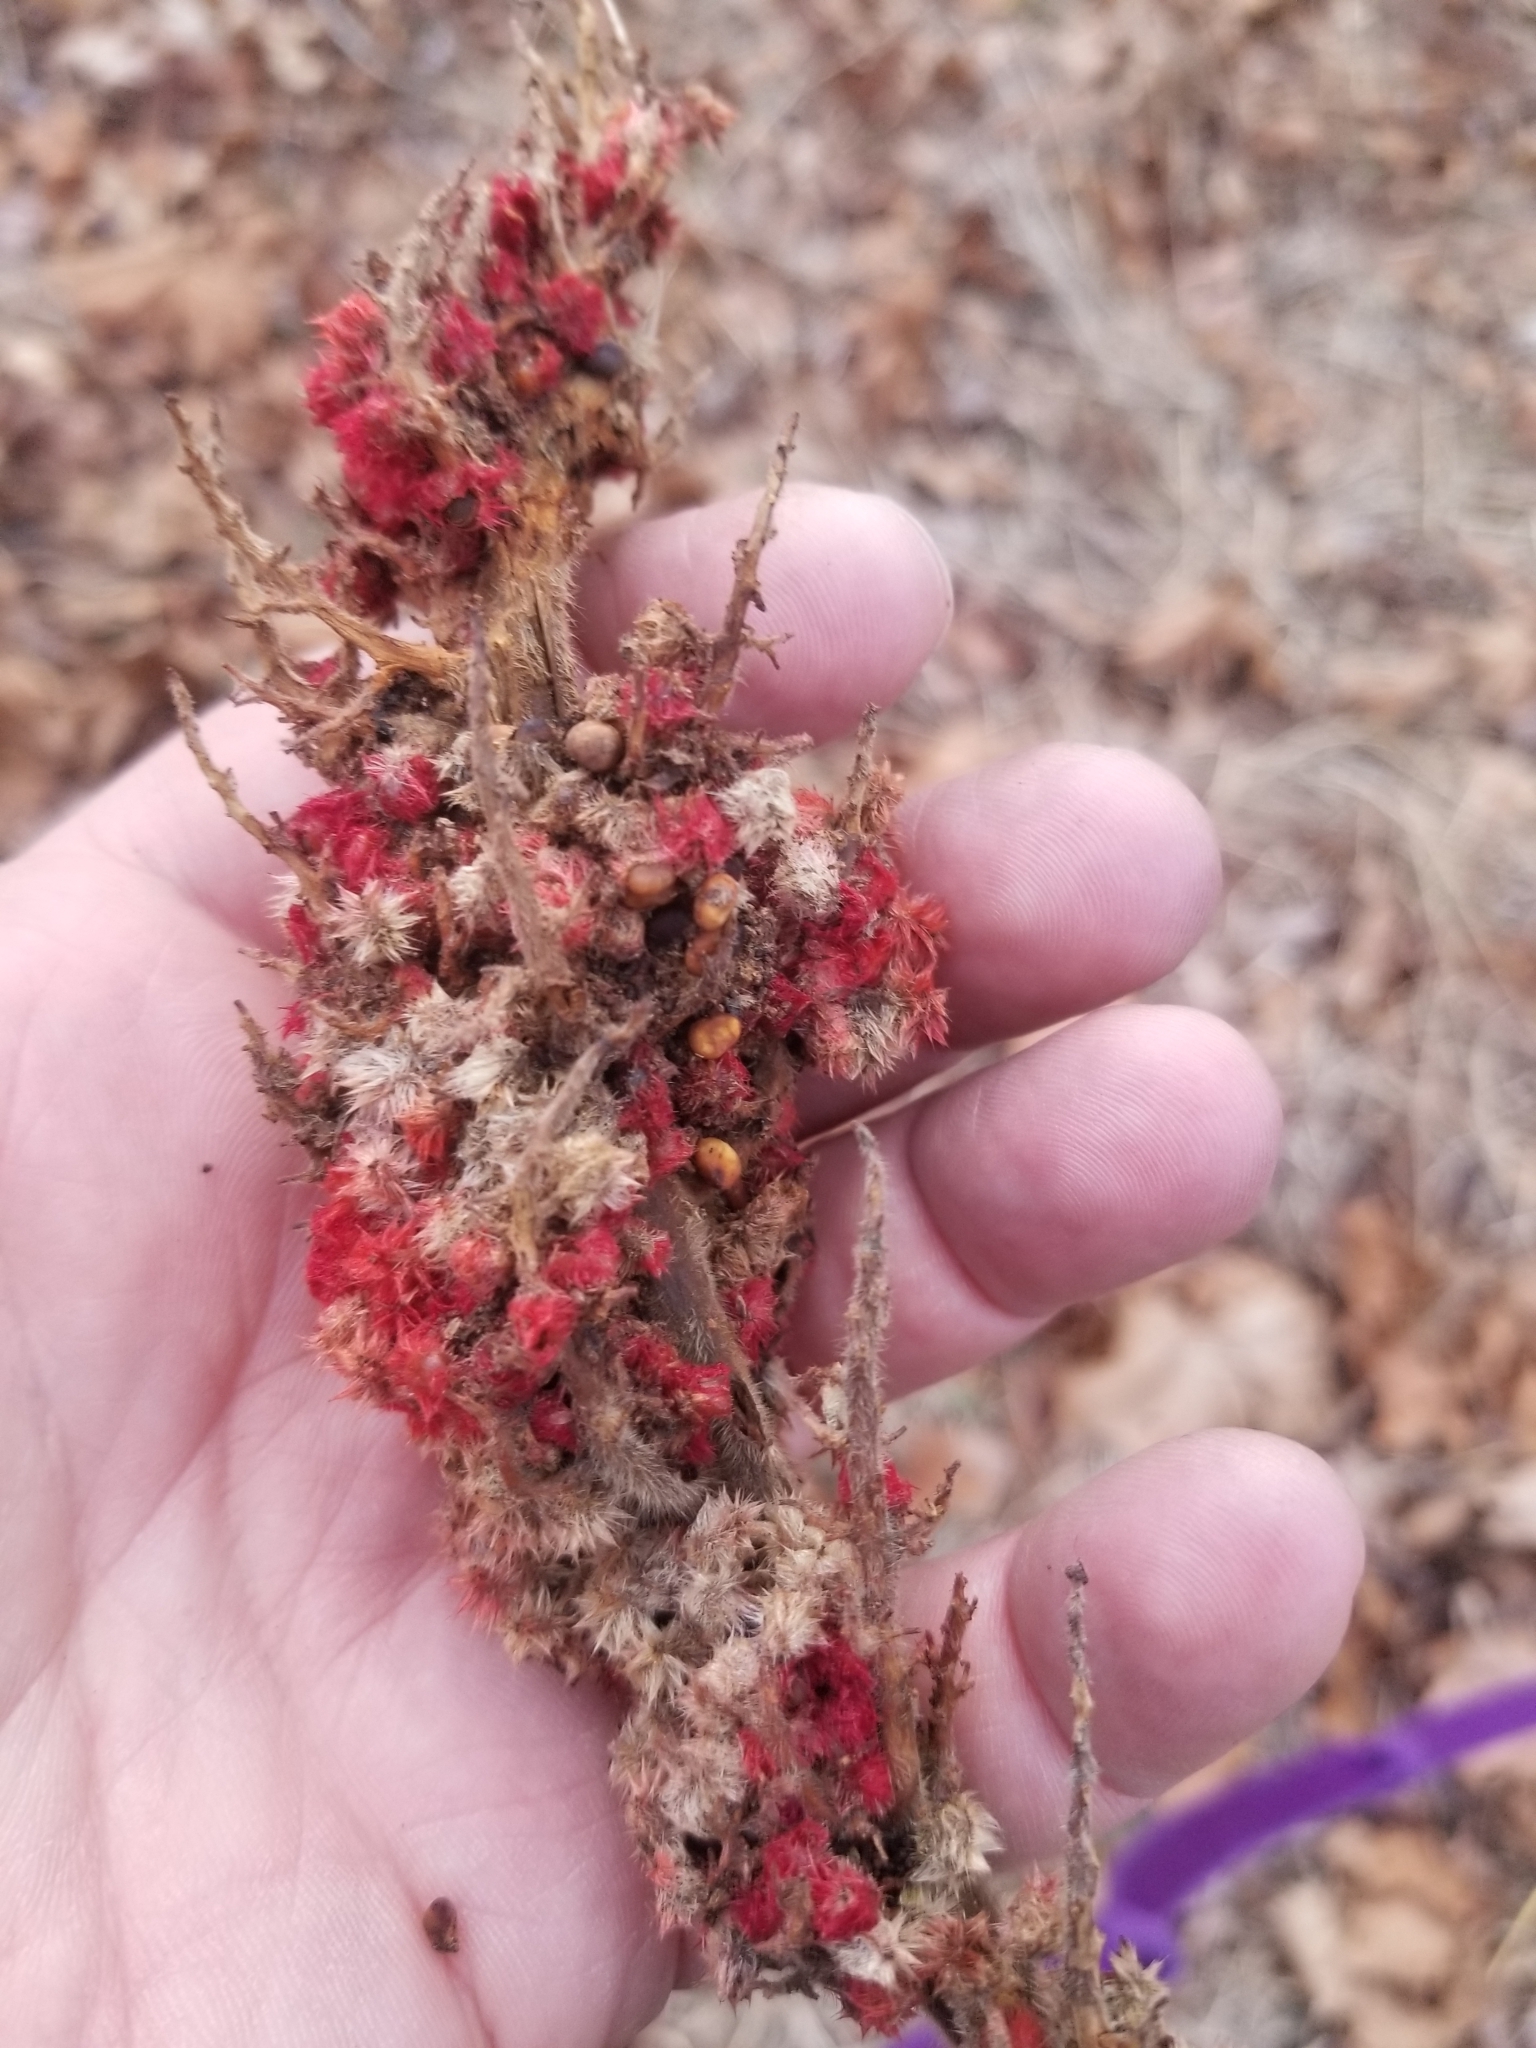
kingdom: Plantae
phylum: Tracheophyta
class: Magnoliopsida
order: Sapindales
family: Anacardiaceae
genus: Rhus
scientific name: Rhus typhina
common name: Staghorn sumac
